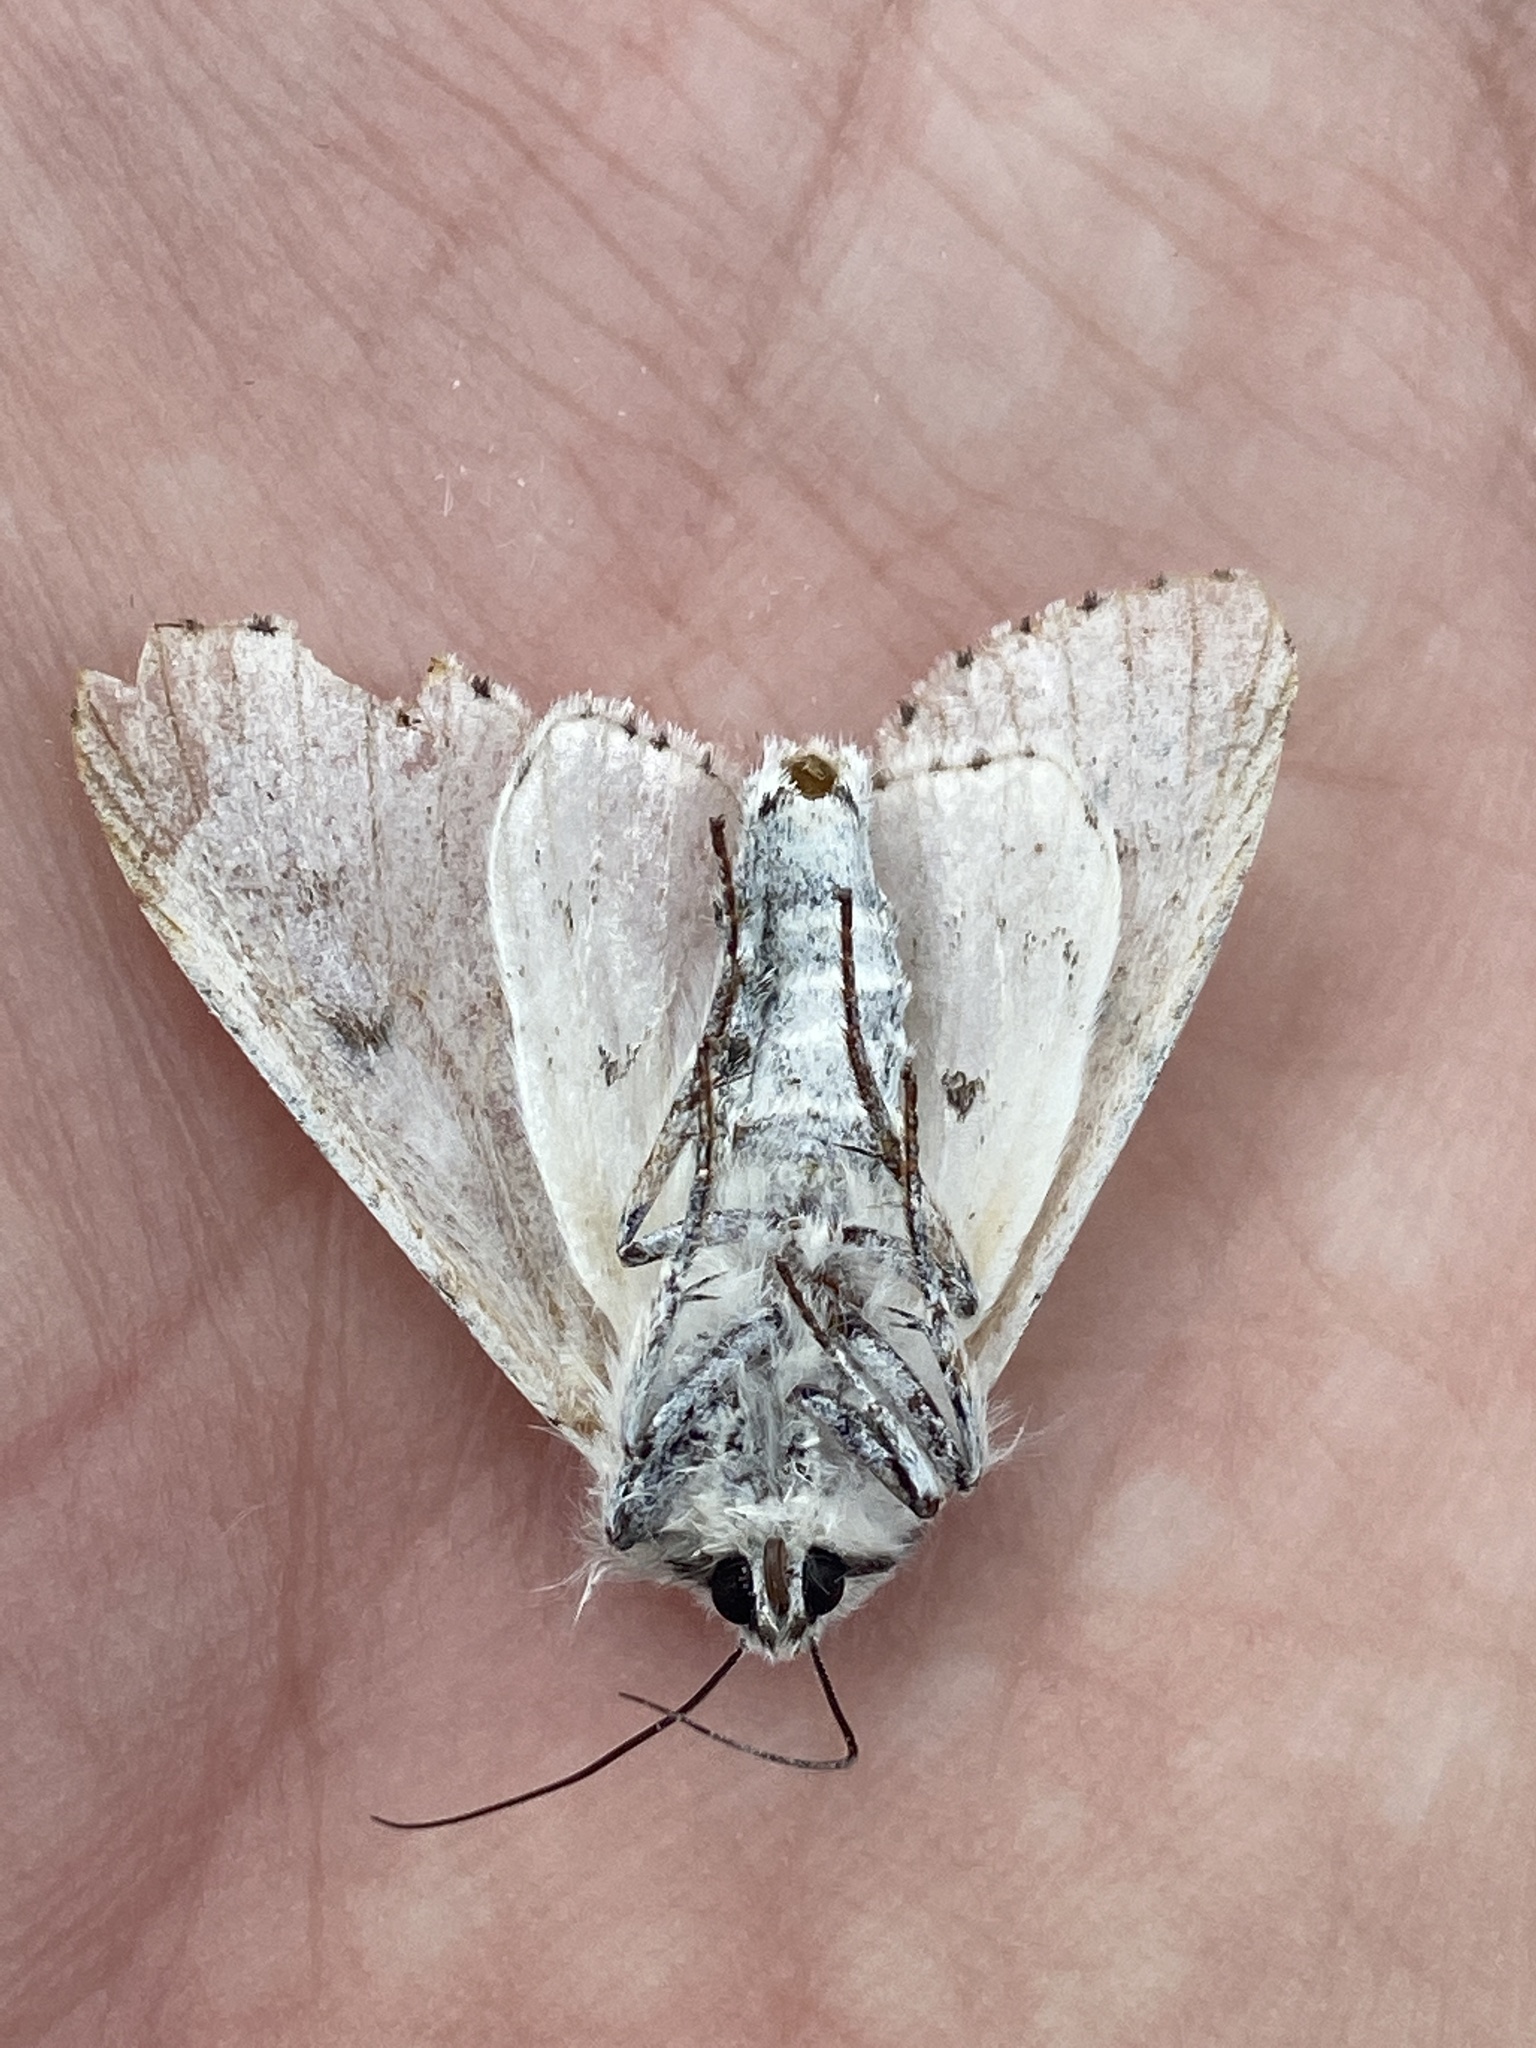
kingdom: Animalia
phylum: Arthropoda
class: Insecta
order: Lepidoptera
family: Noctuidae
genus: Acronicta
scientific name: Acronicta leporina
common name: Miller
